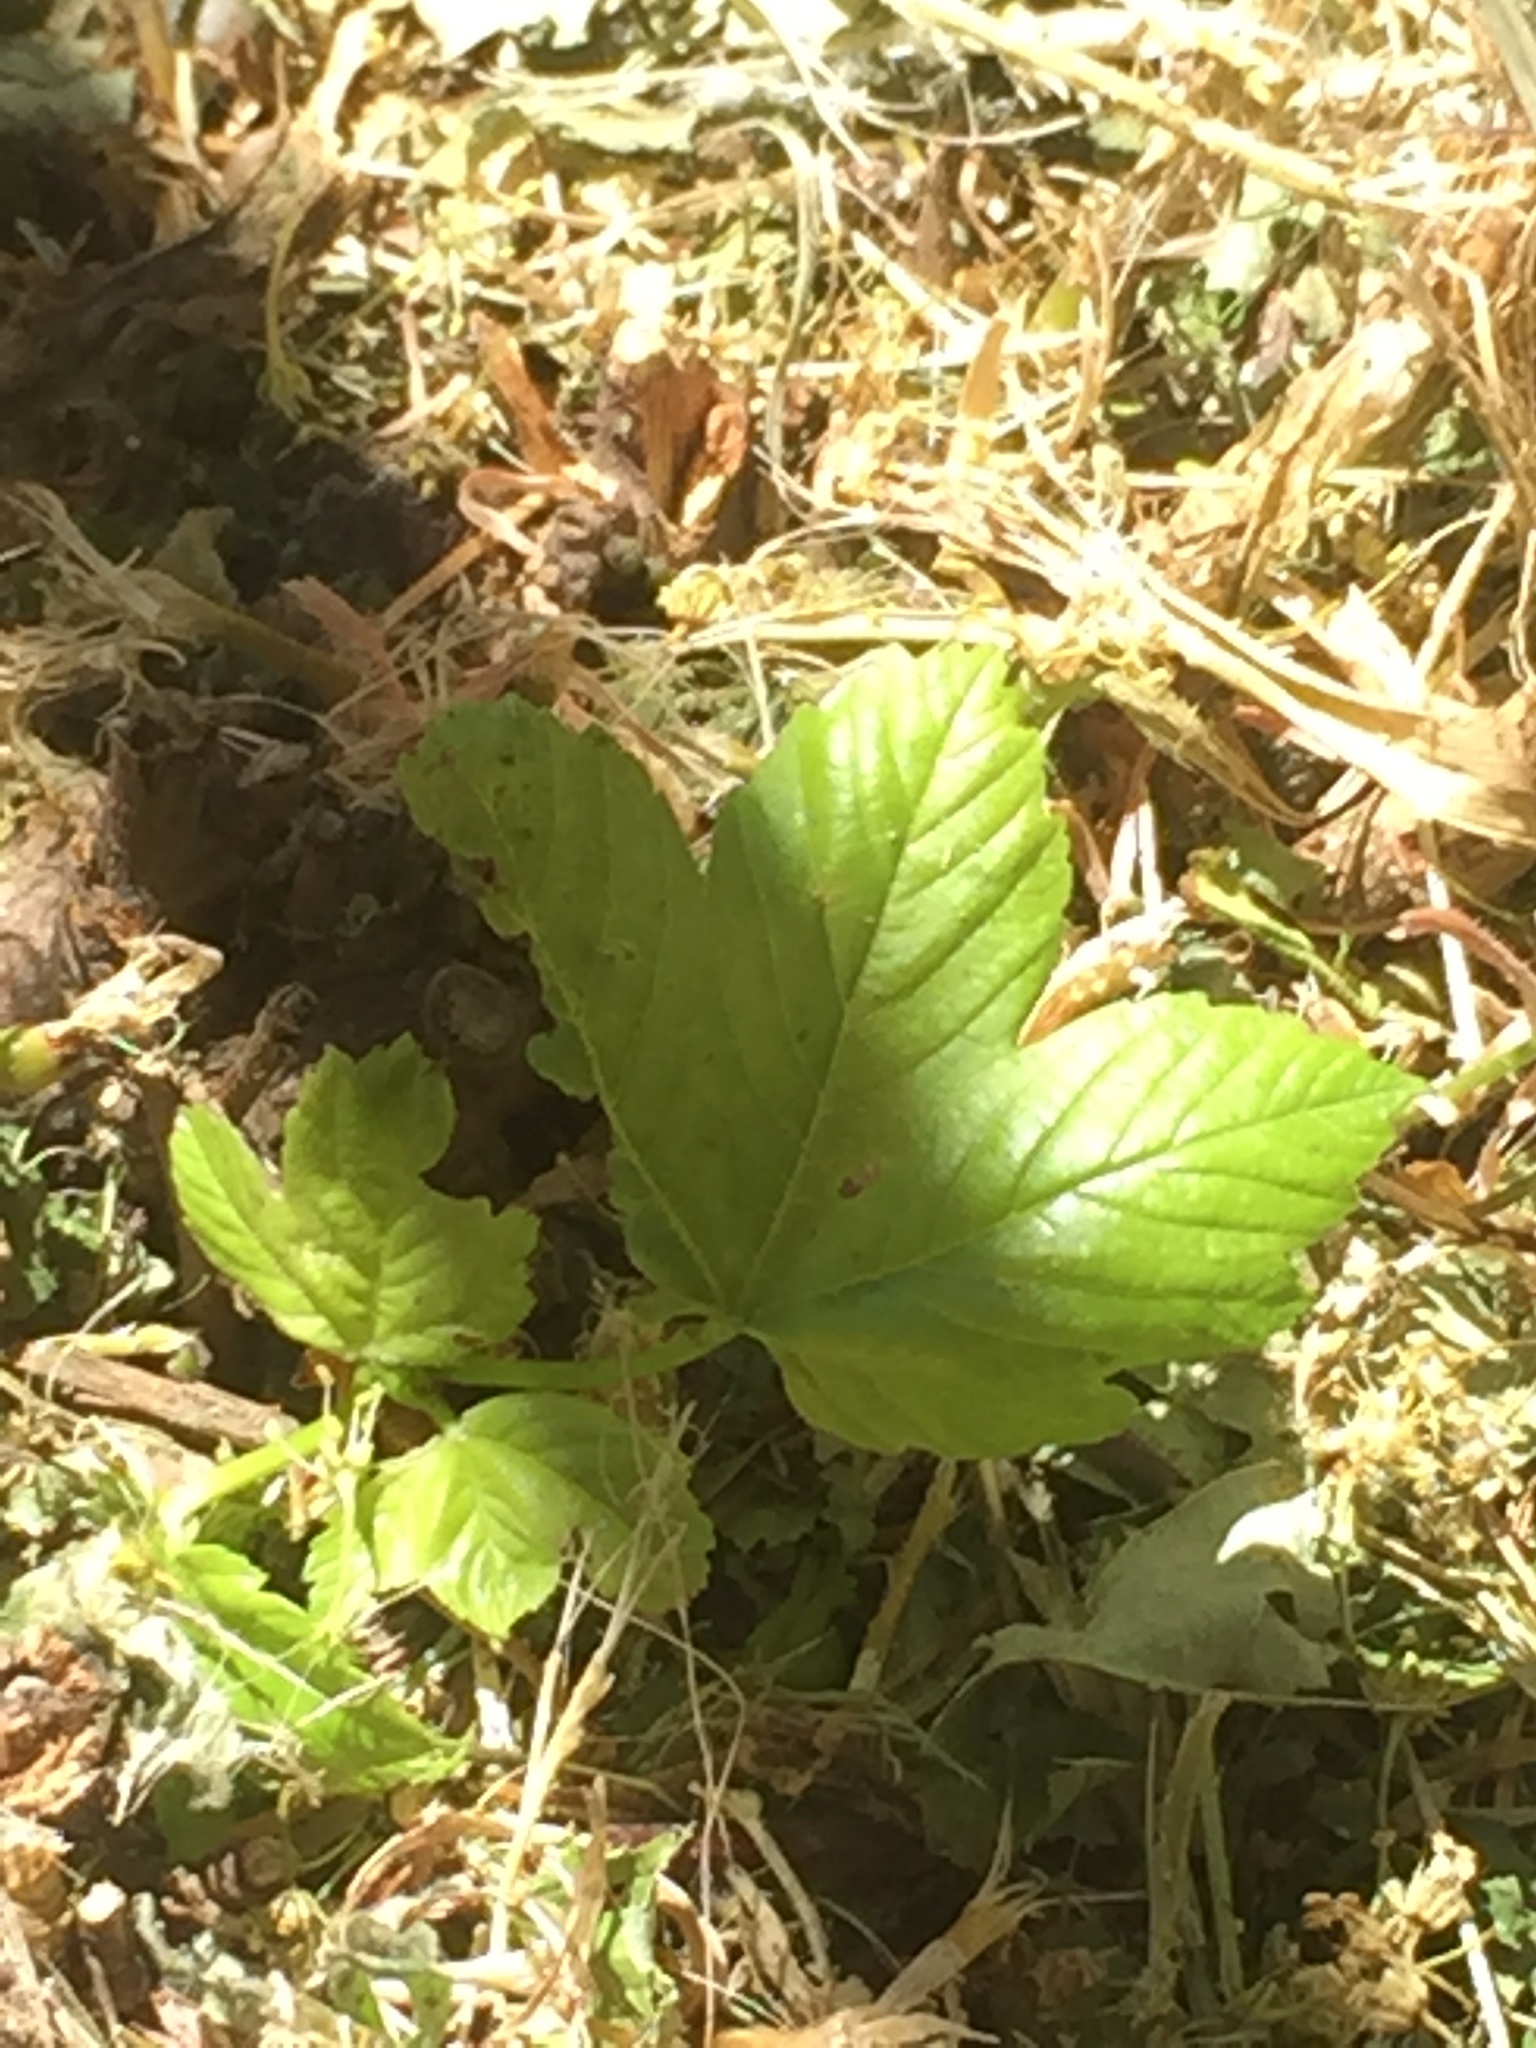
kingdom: Plantae
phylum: Tracheophyta
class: Magnoliopsida
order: Sapindales
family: Sapindaceae
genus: Acer
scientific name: Acer pseudoplatanus
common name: Sycamore
